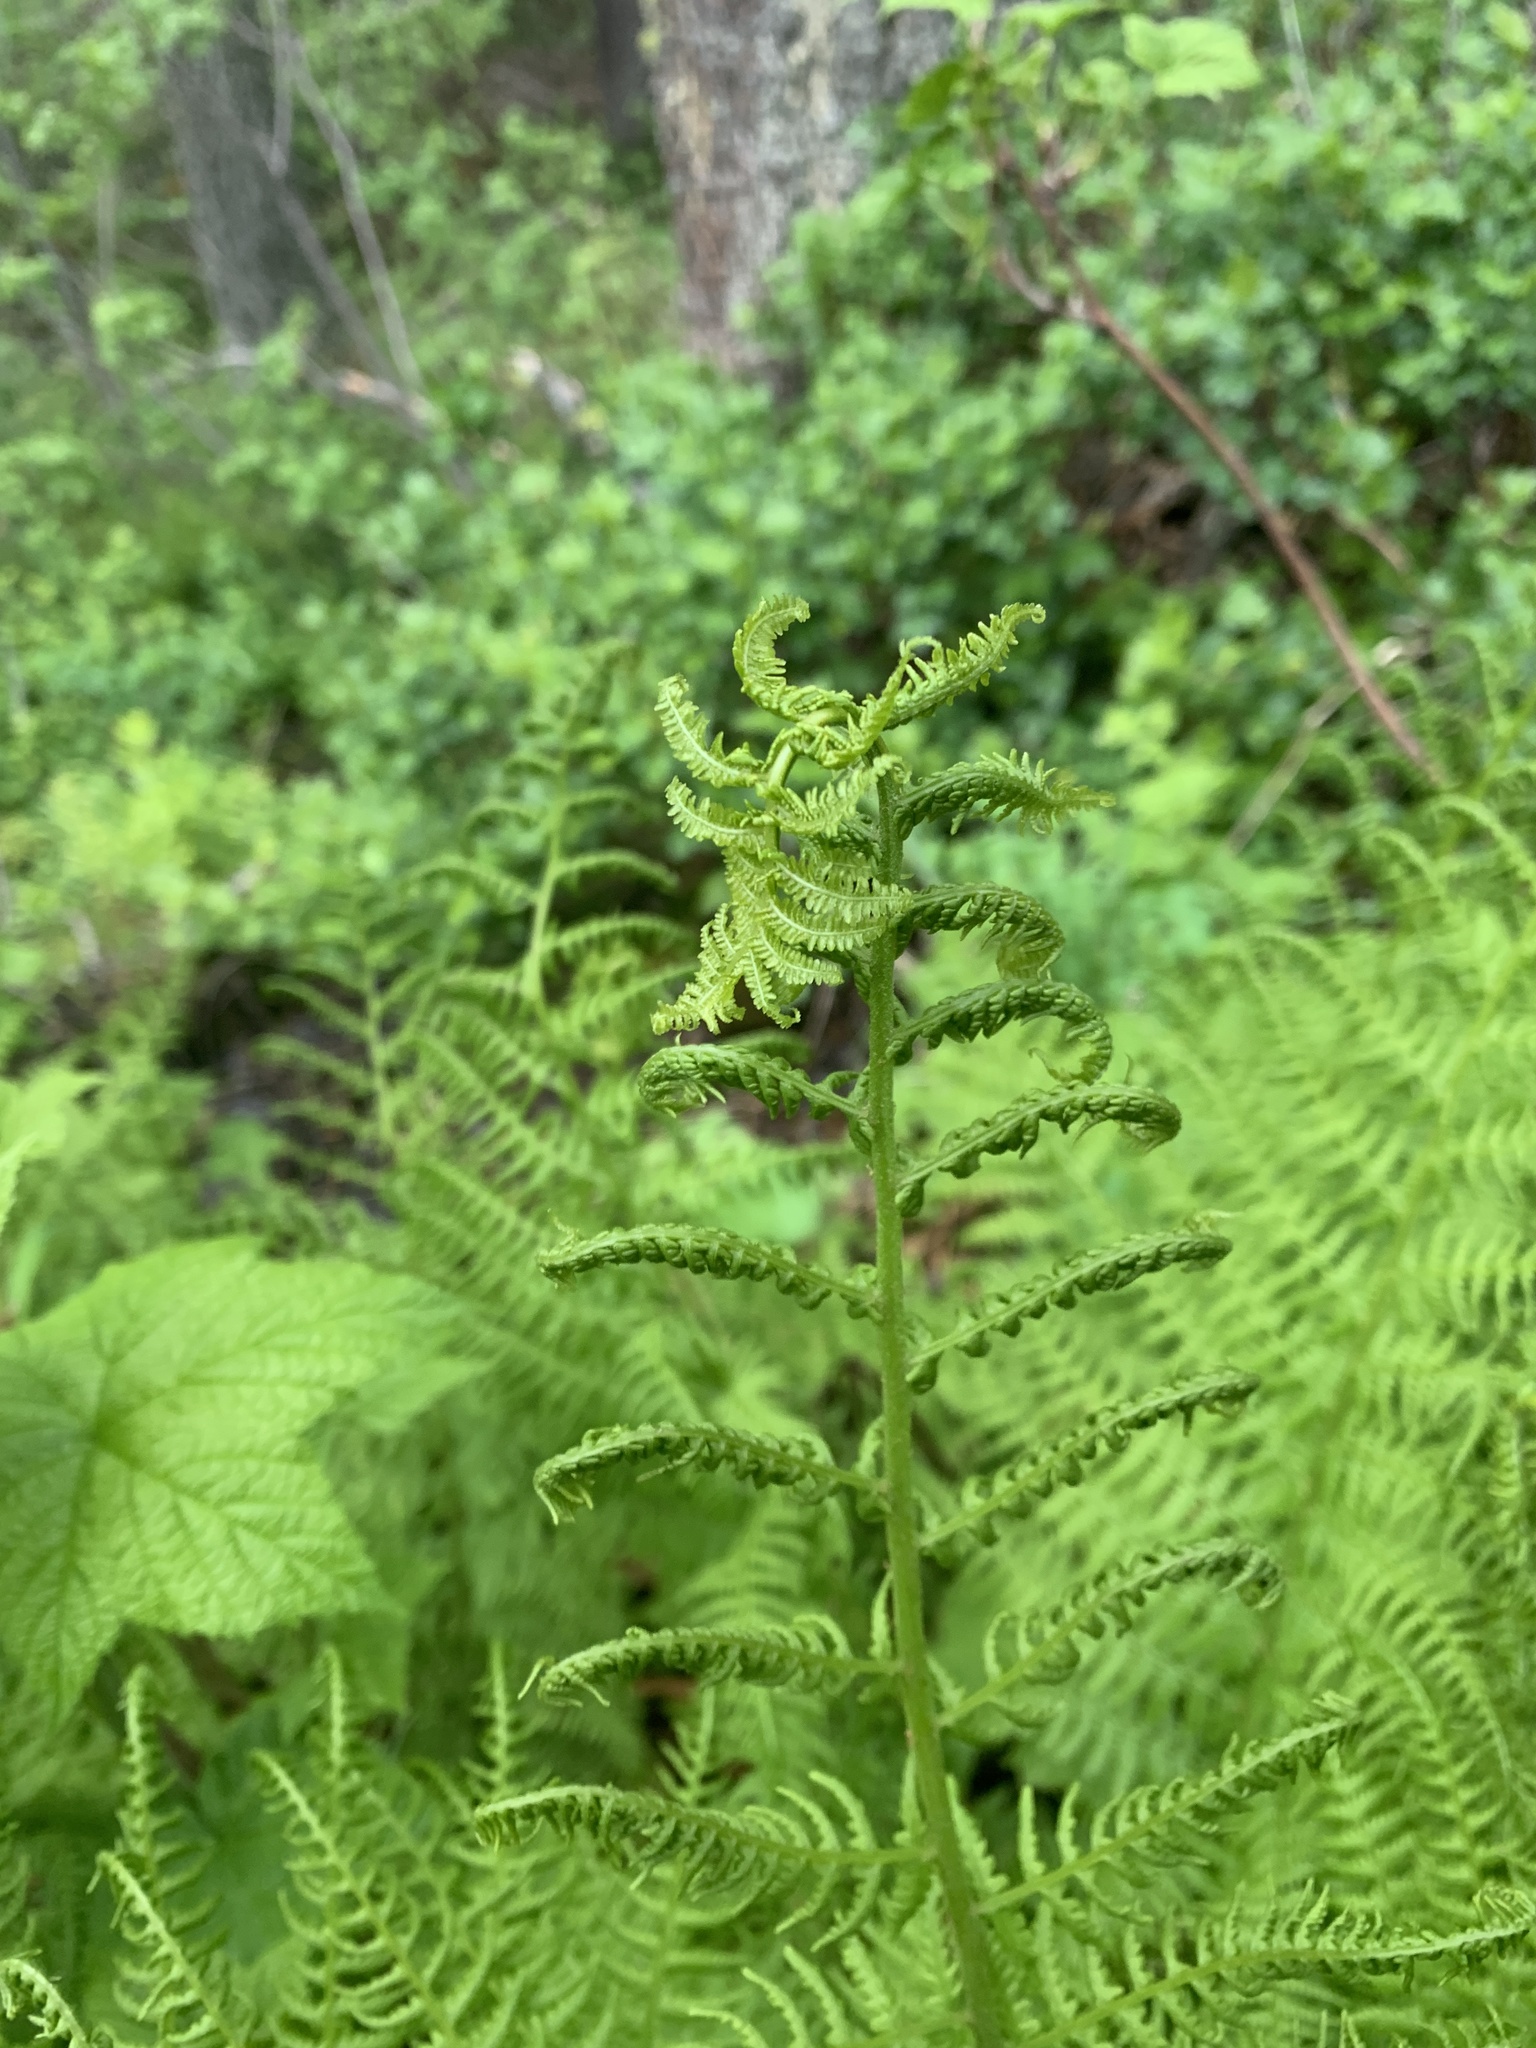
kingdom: Plantae
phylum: Tracheophyta
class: Polypodiopsida
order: Polypodiales
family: Athyriaceae
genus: Athyrium
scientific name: Athyrium filix-femina
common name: Lady fern
